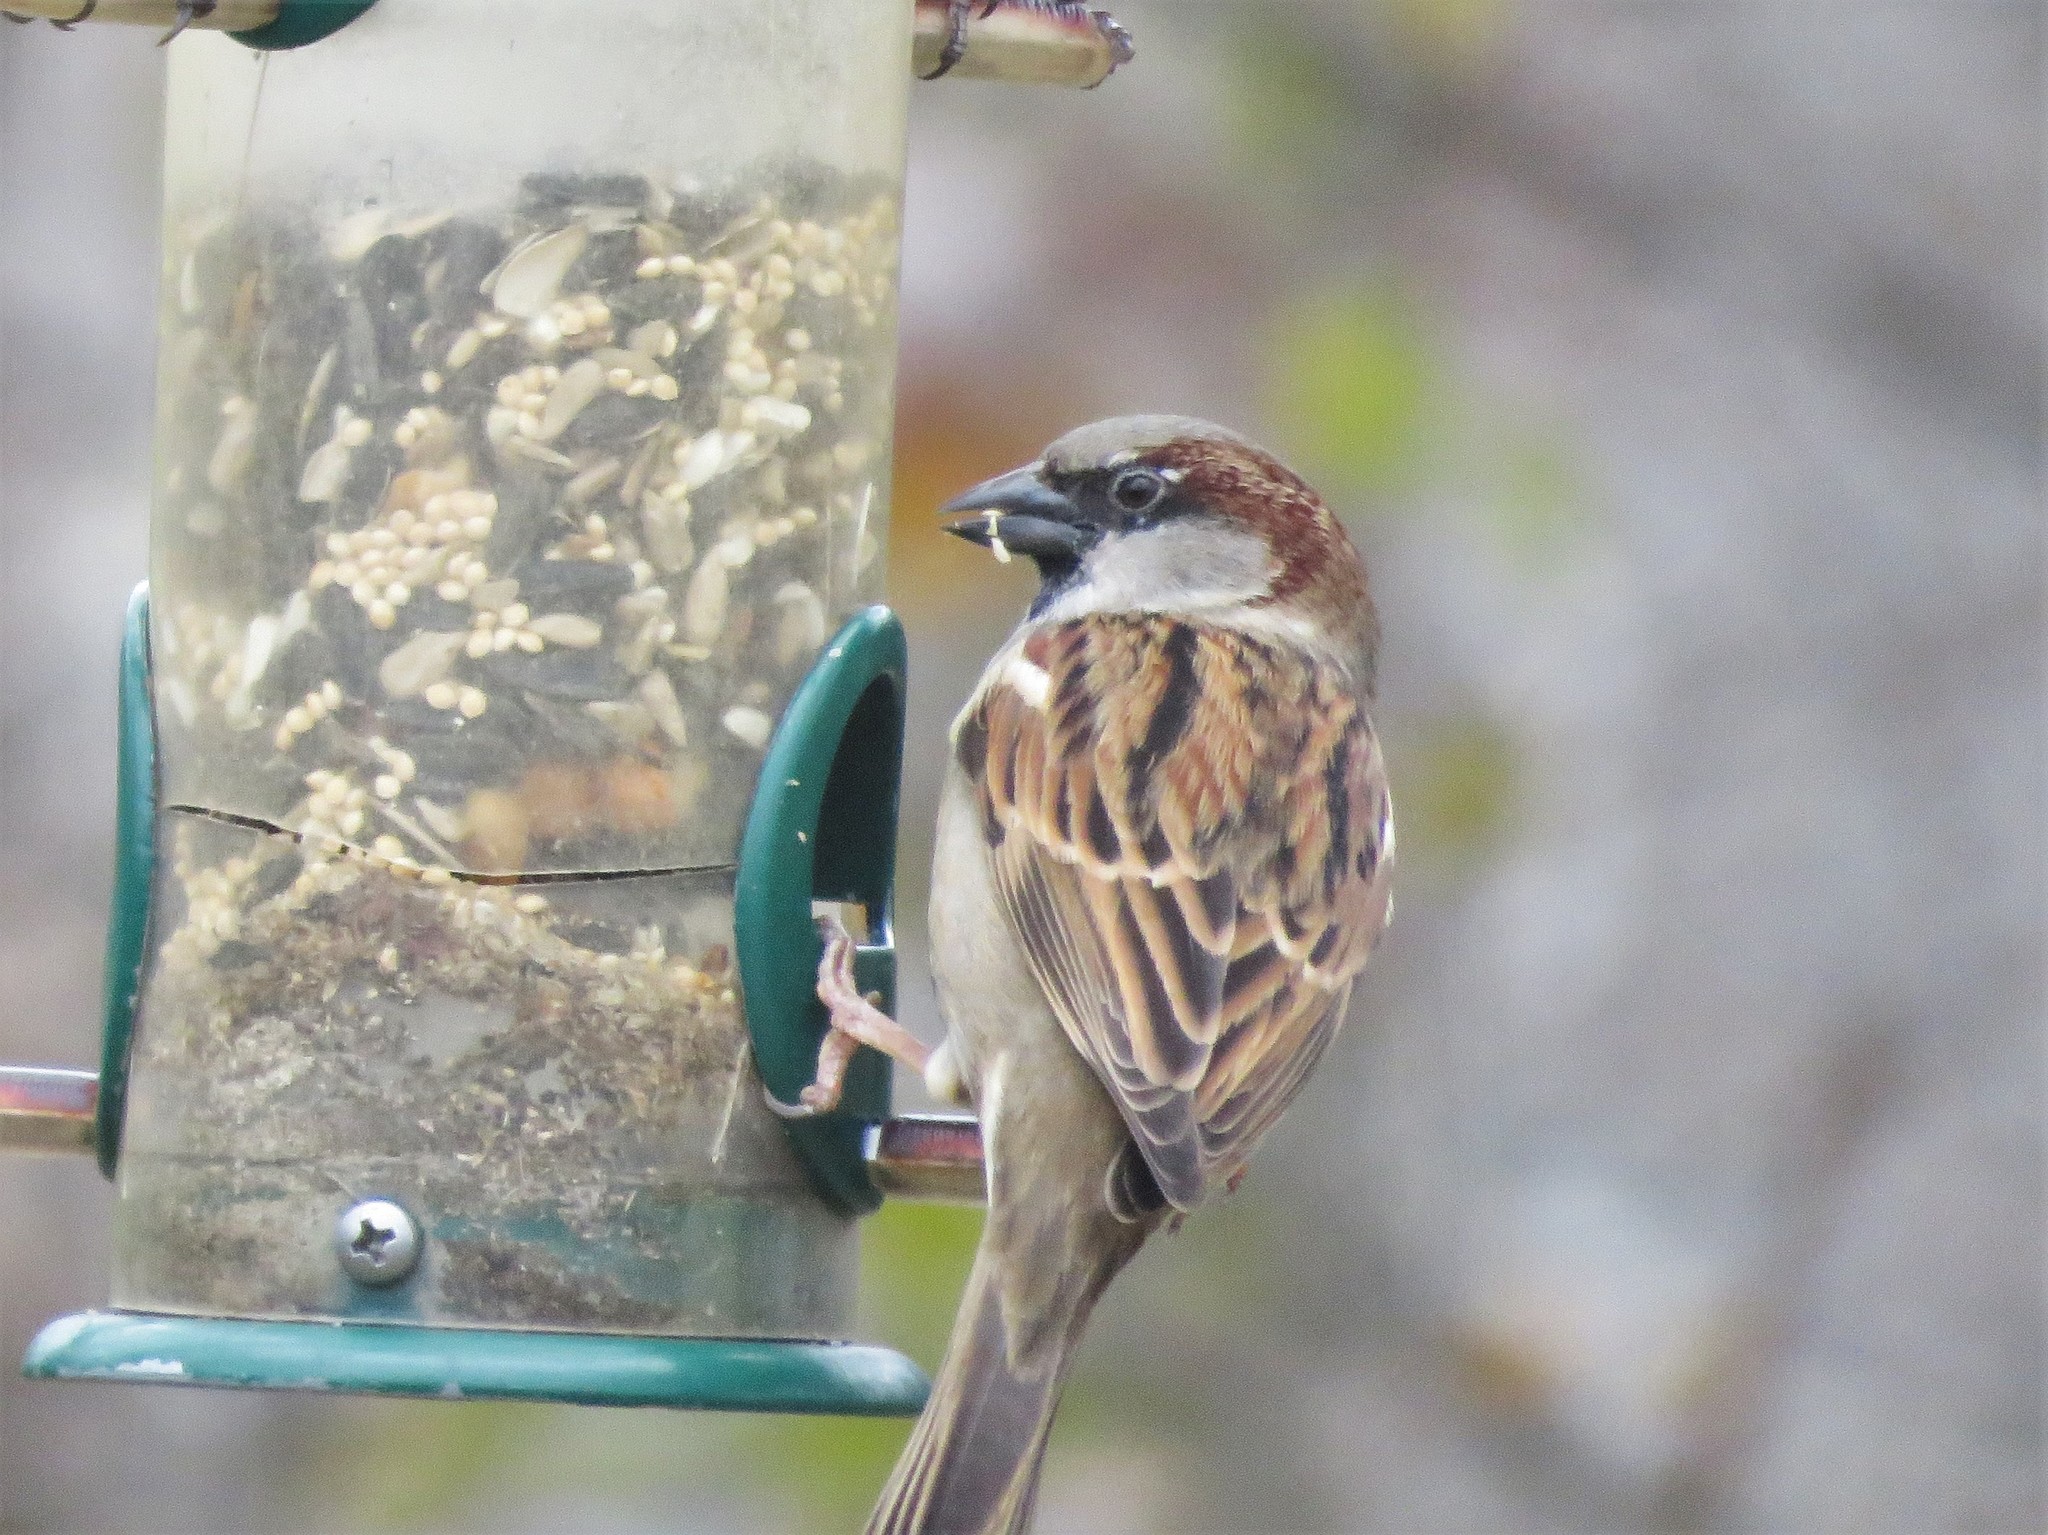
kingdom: Animalia
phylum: Chordata
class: Aves
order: Passeriformes
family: Passeridae
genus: Passer
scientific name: Passer domesticus
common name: House sparrow
